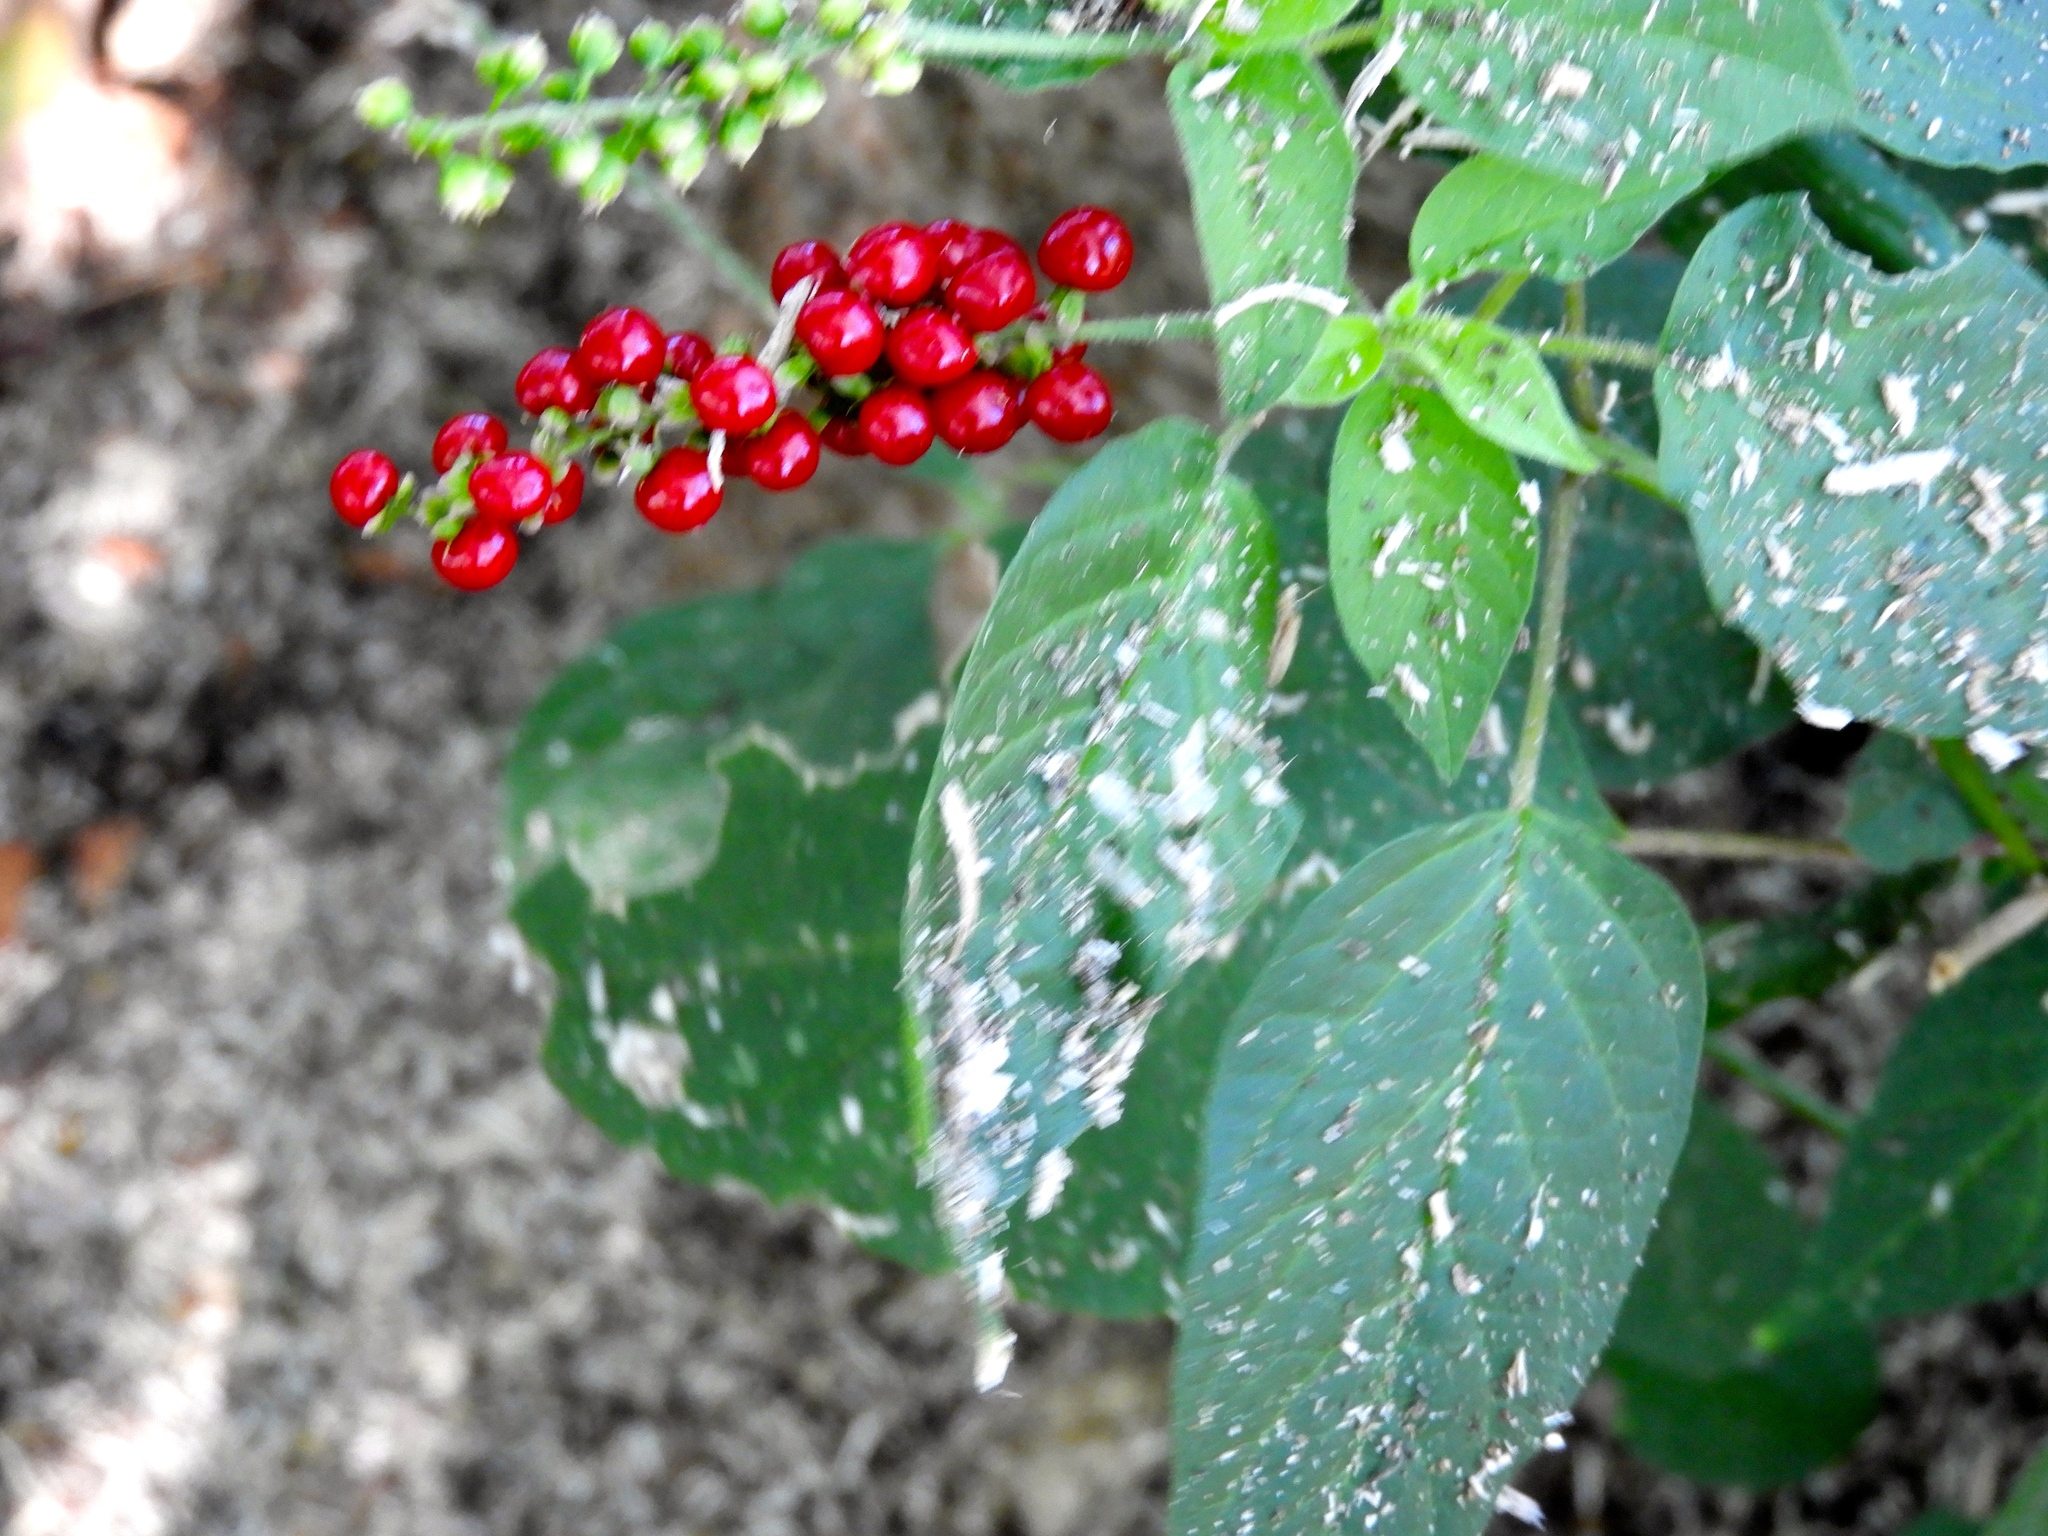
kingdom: Plantae
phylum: Tracheophyta
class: Magnoliopsida
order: Caryophyllales
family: Phytolaccaceae
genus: Rivina
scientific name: Rivina humilis
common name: Rougeplant
